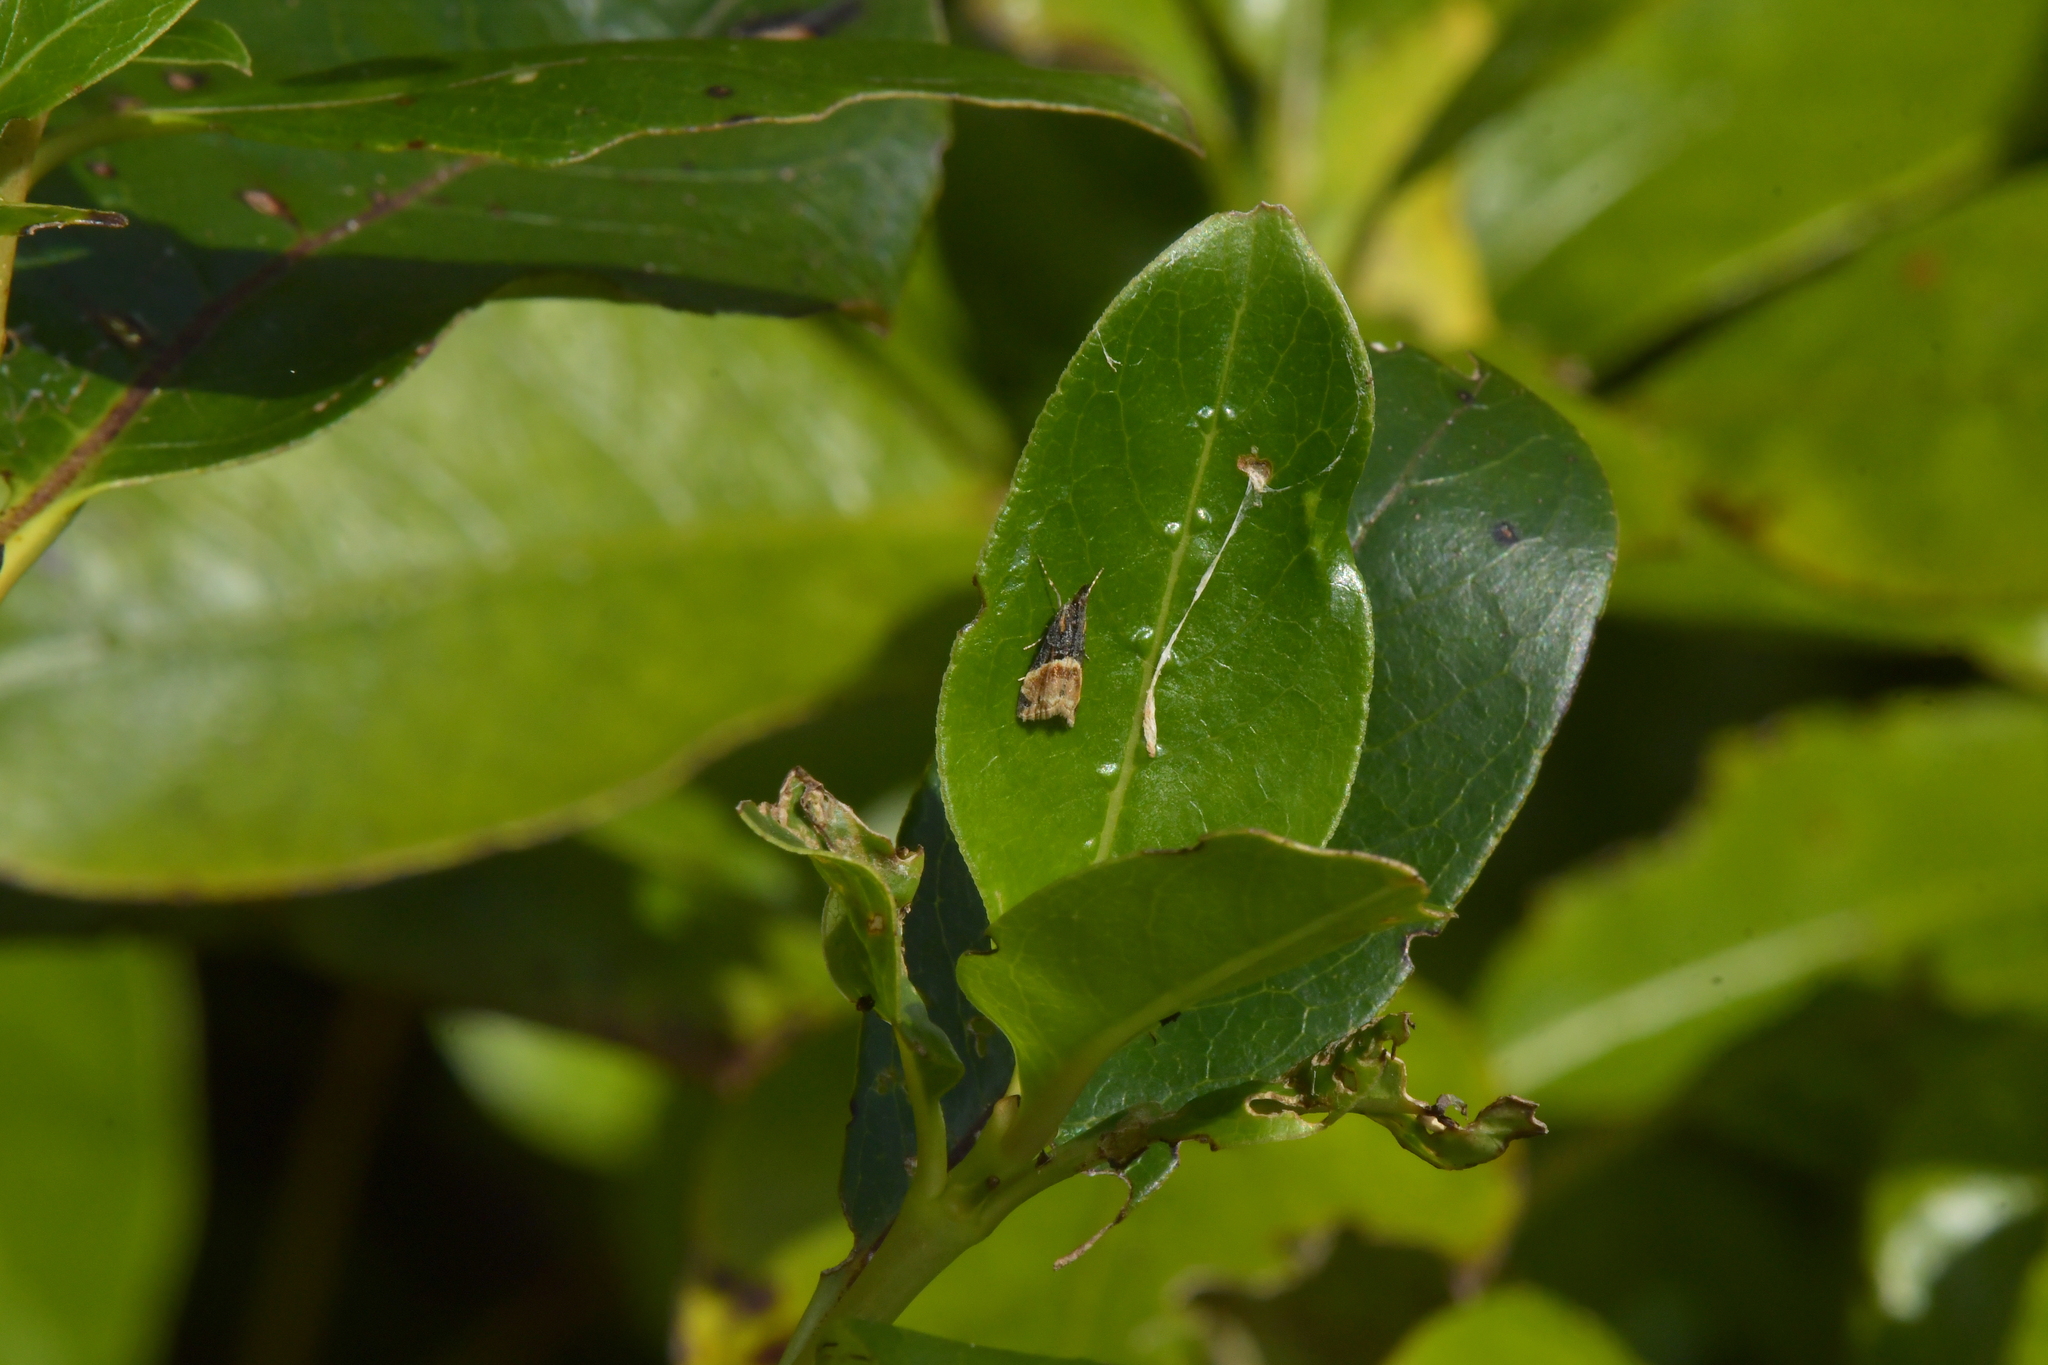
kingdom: Animalia
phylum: Arthropoda
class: Insecta
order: Lepidoptera
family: Crambidae
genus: Eudonia
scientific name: Eudonia chlamydota
